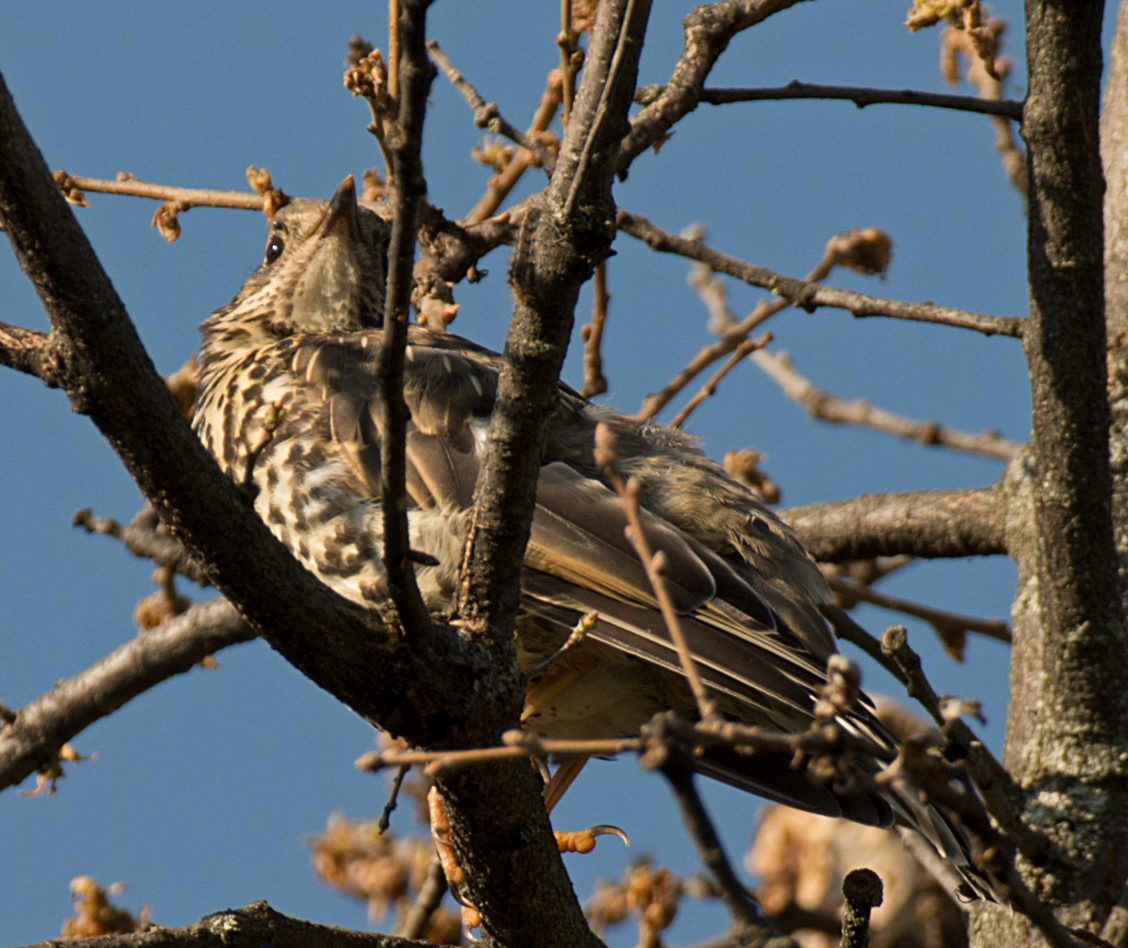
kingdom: Animalia
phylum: Chordata
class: Aves
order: Passeriformes
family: Turdidae
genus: Turdus
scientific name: Turdus viscivorus
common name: Mistle thrush
